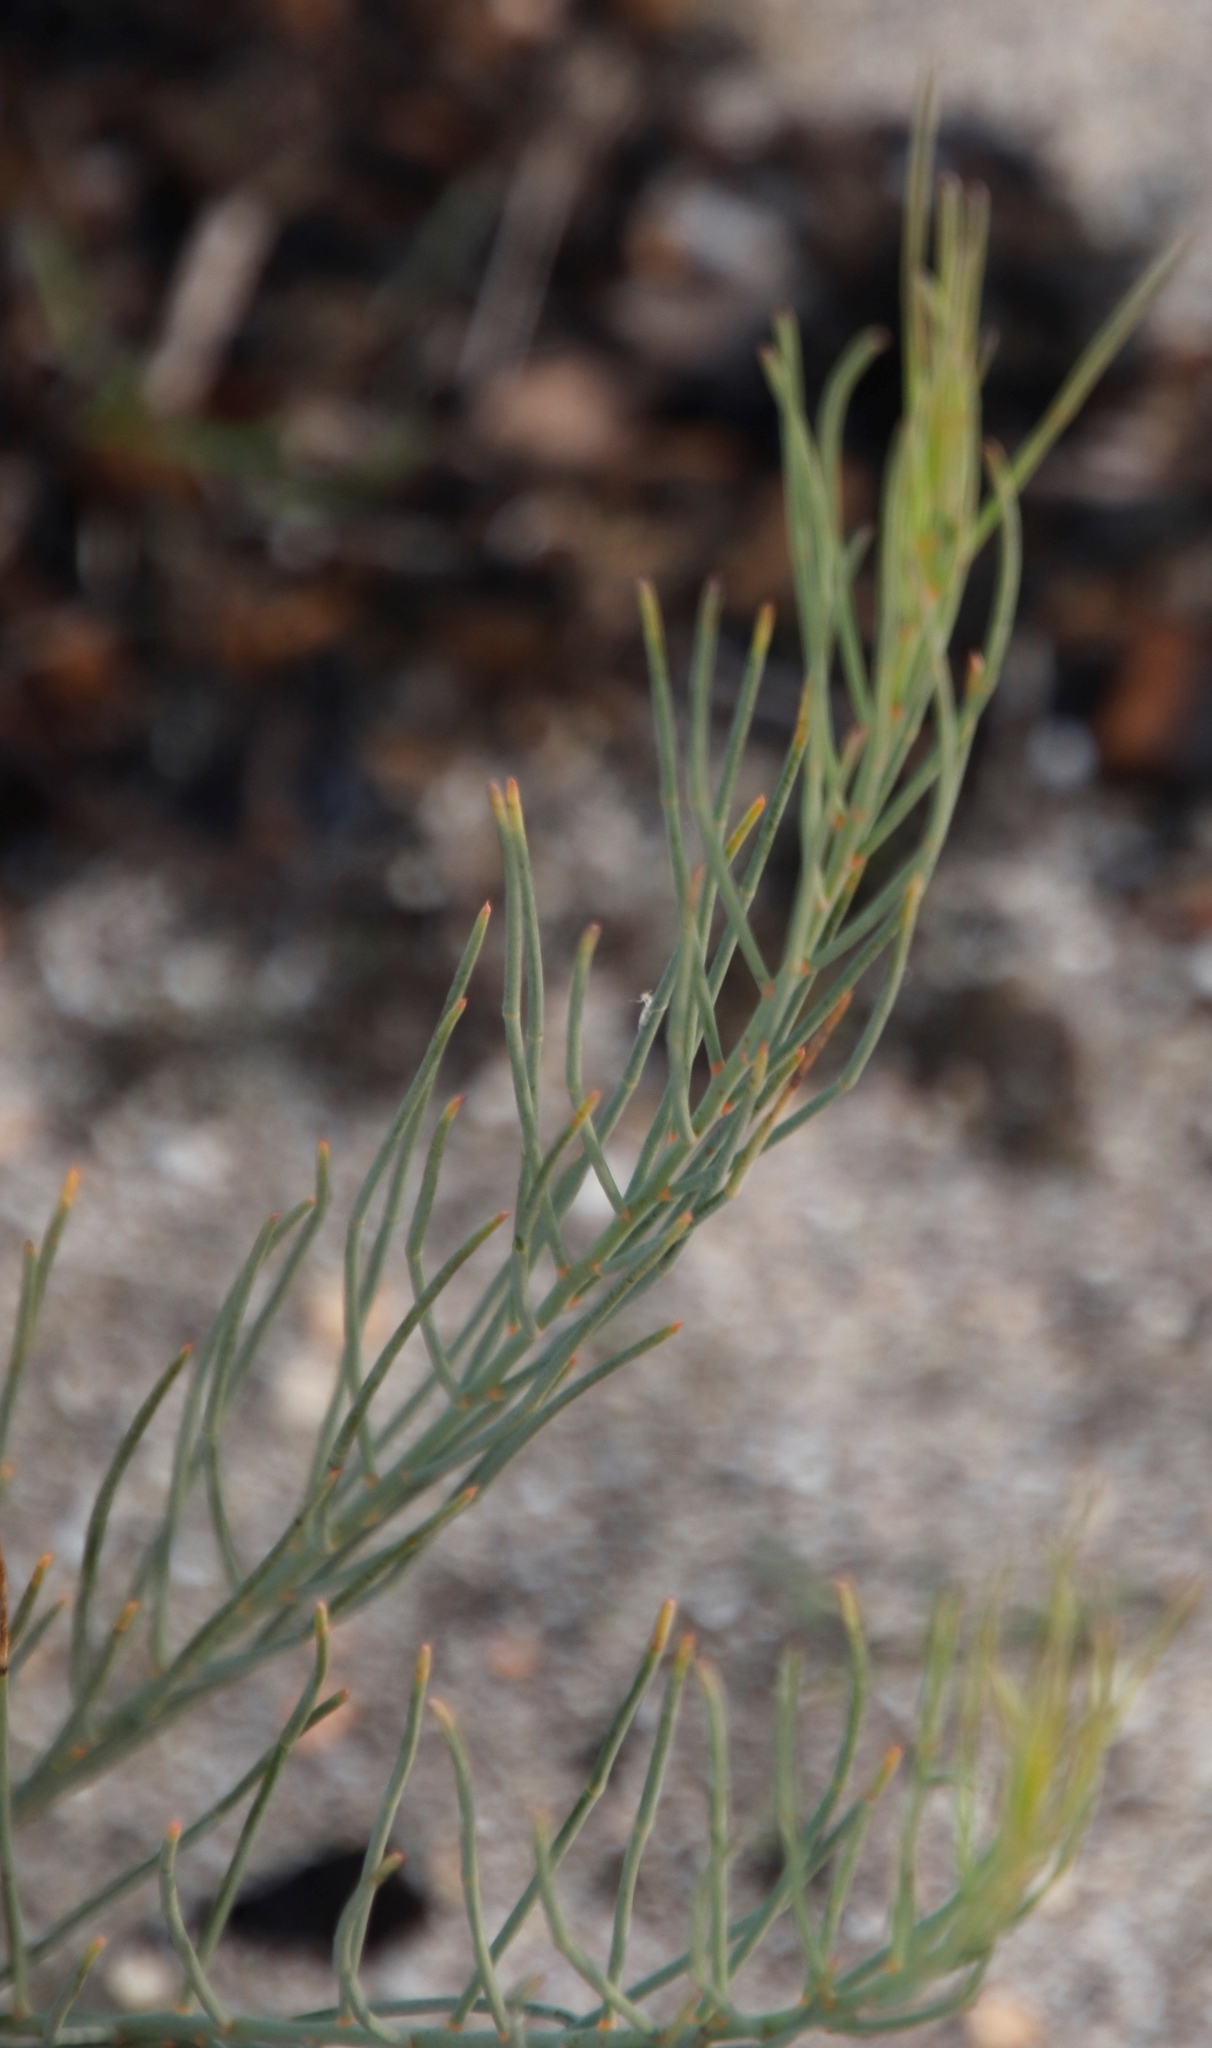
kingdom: Plantae
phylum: Tracheophyta
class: Magnoliopsida
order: Fabales
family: Fabaceae
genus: Lebeckia
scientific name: Lebeckia contaminata
